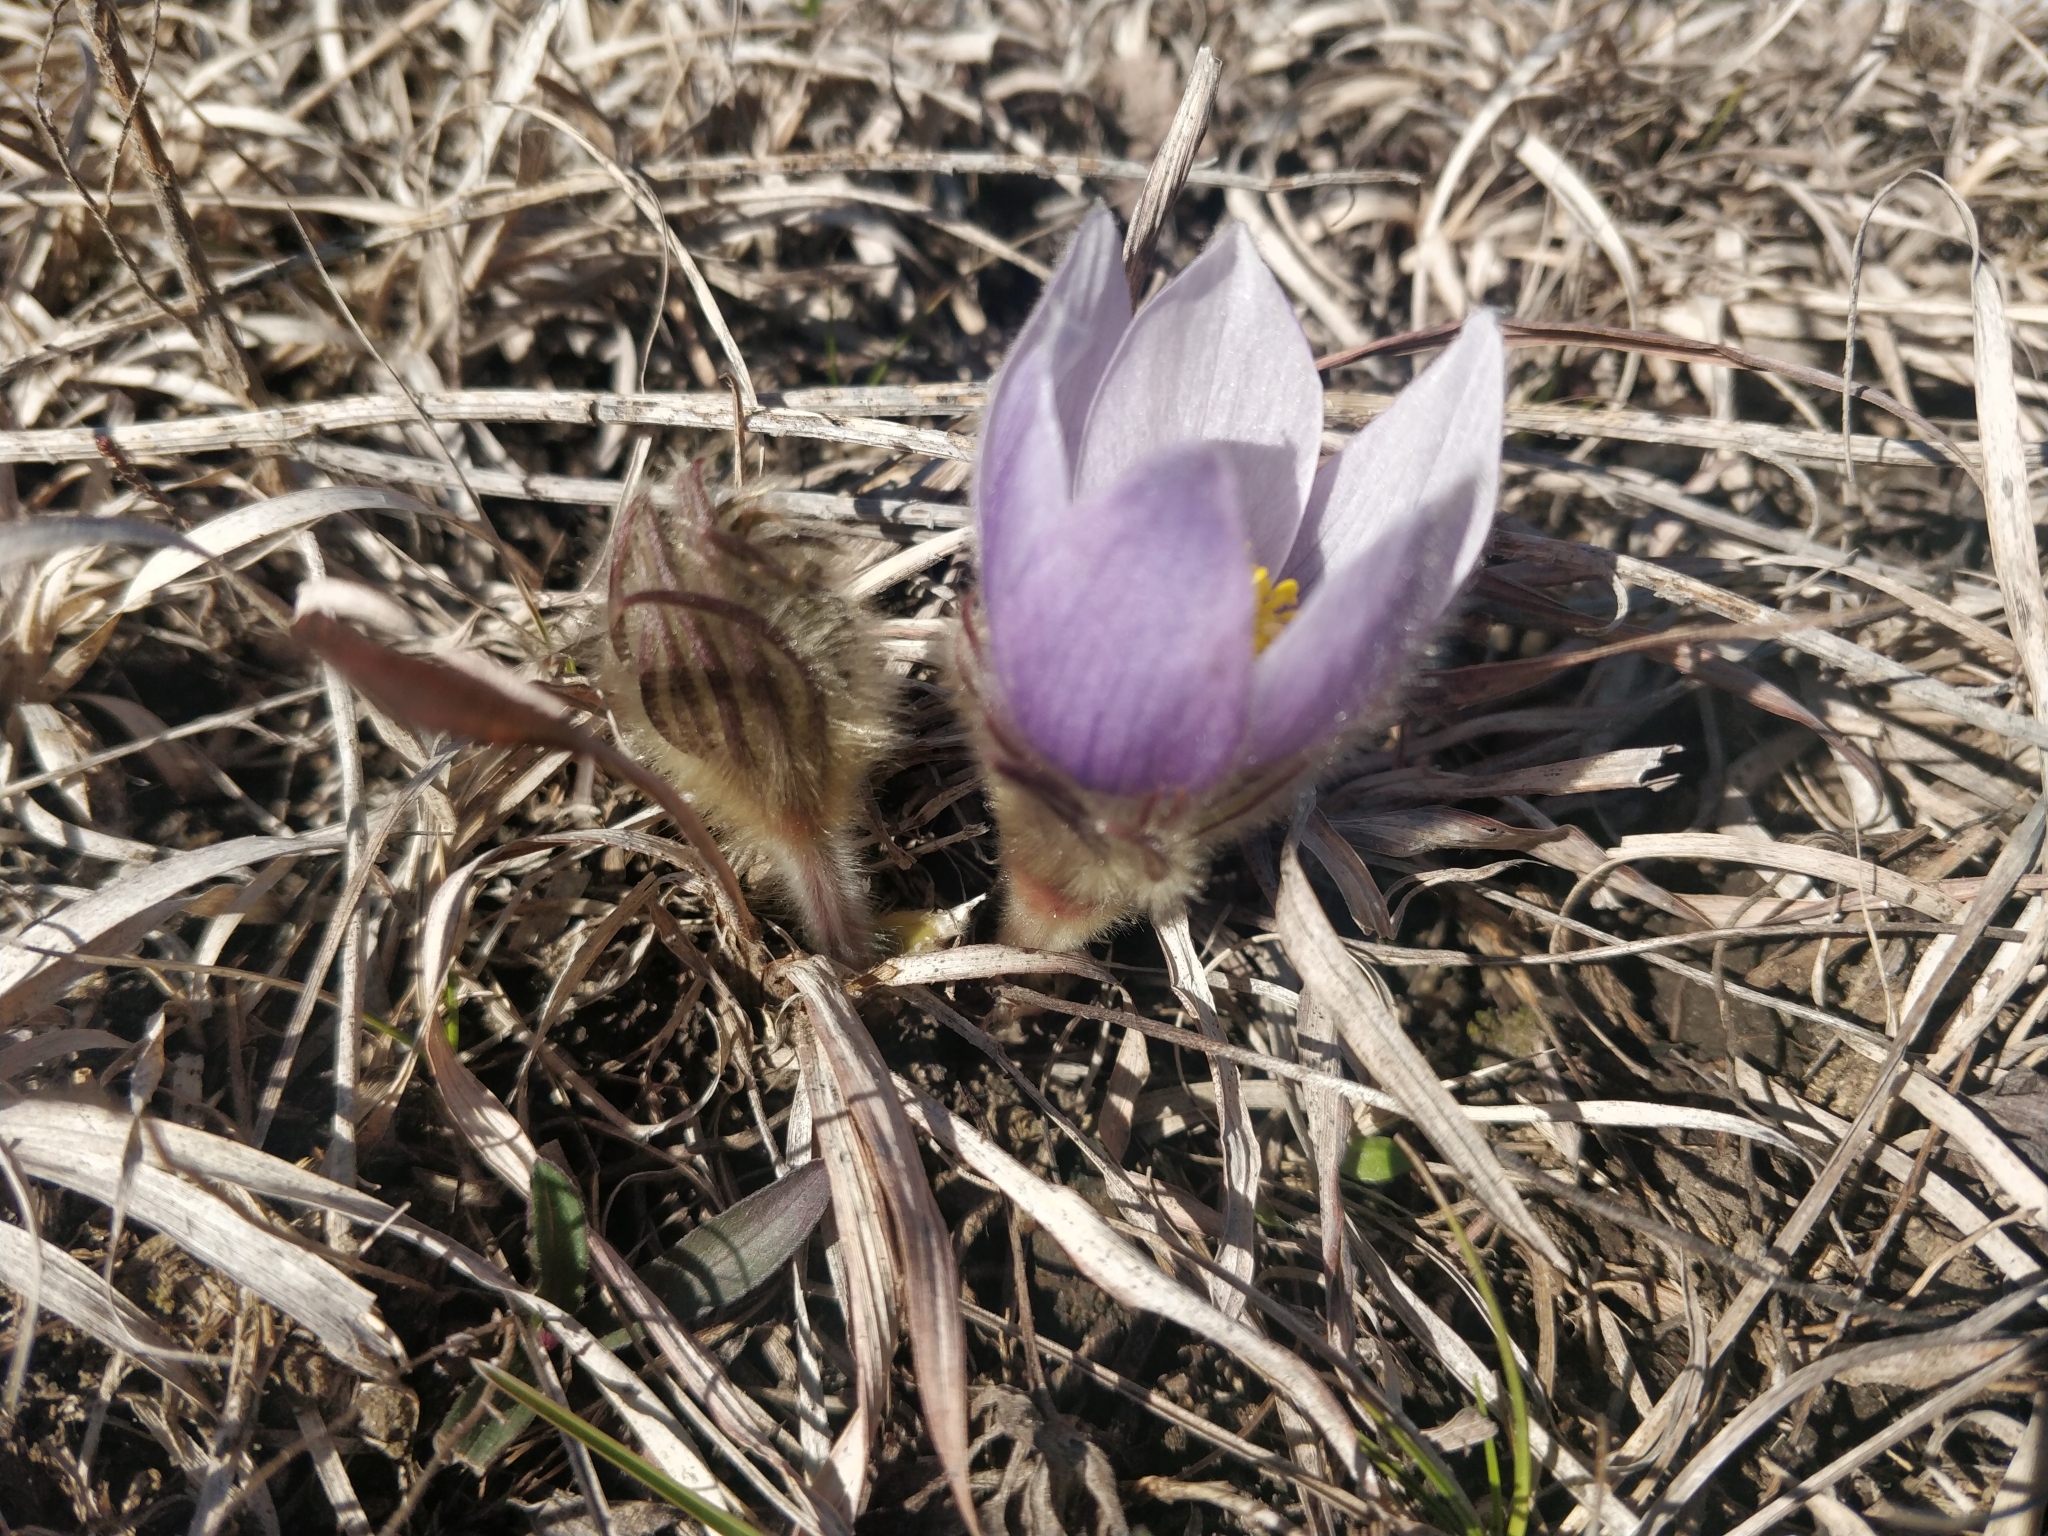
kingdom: Plantae
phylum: Tracheophyta
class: Magnoliopsida
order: Ranunculales
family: Ranunculaceae
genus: Pulsatilla
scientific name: Pulsatilla nuttalliana
